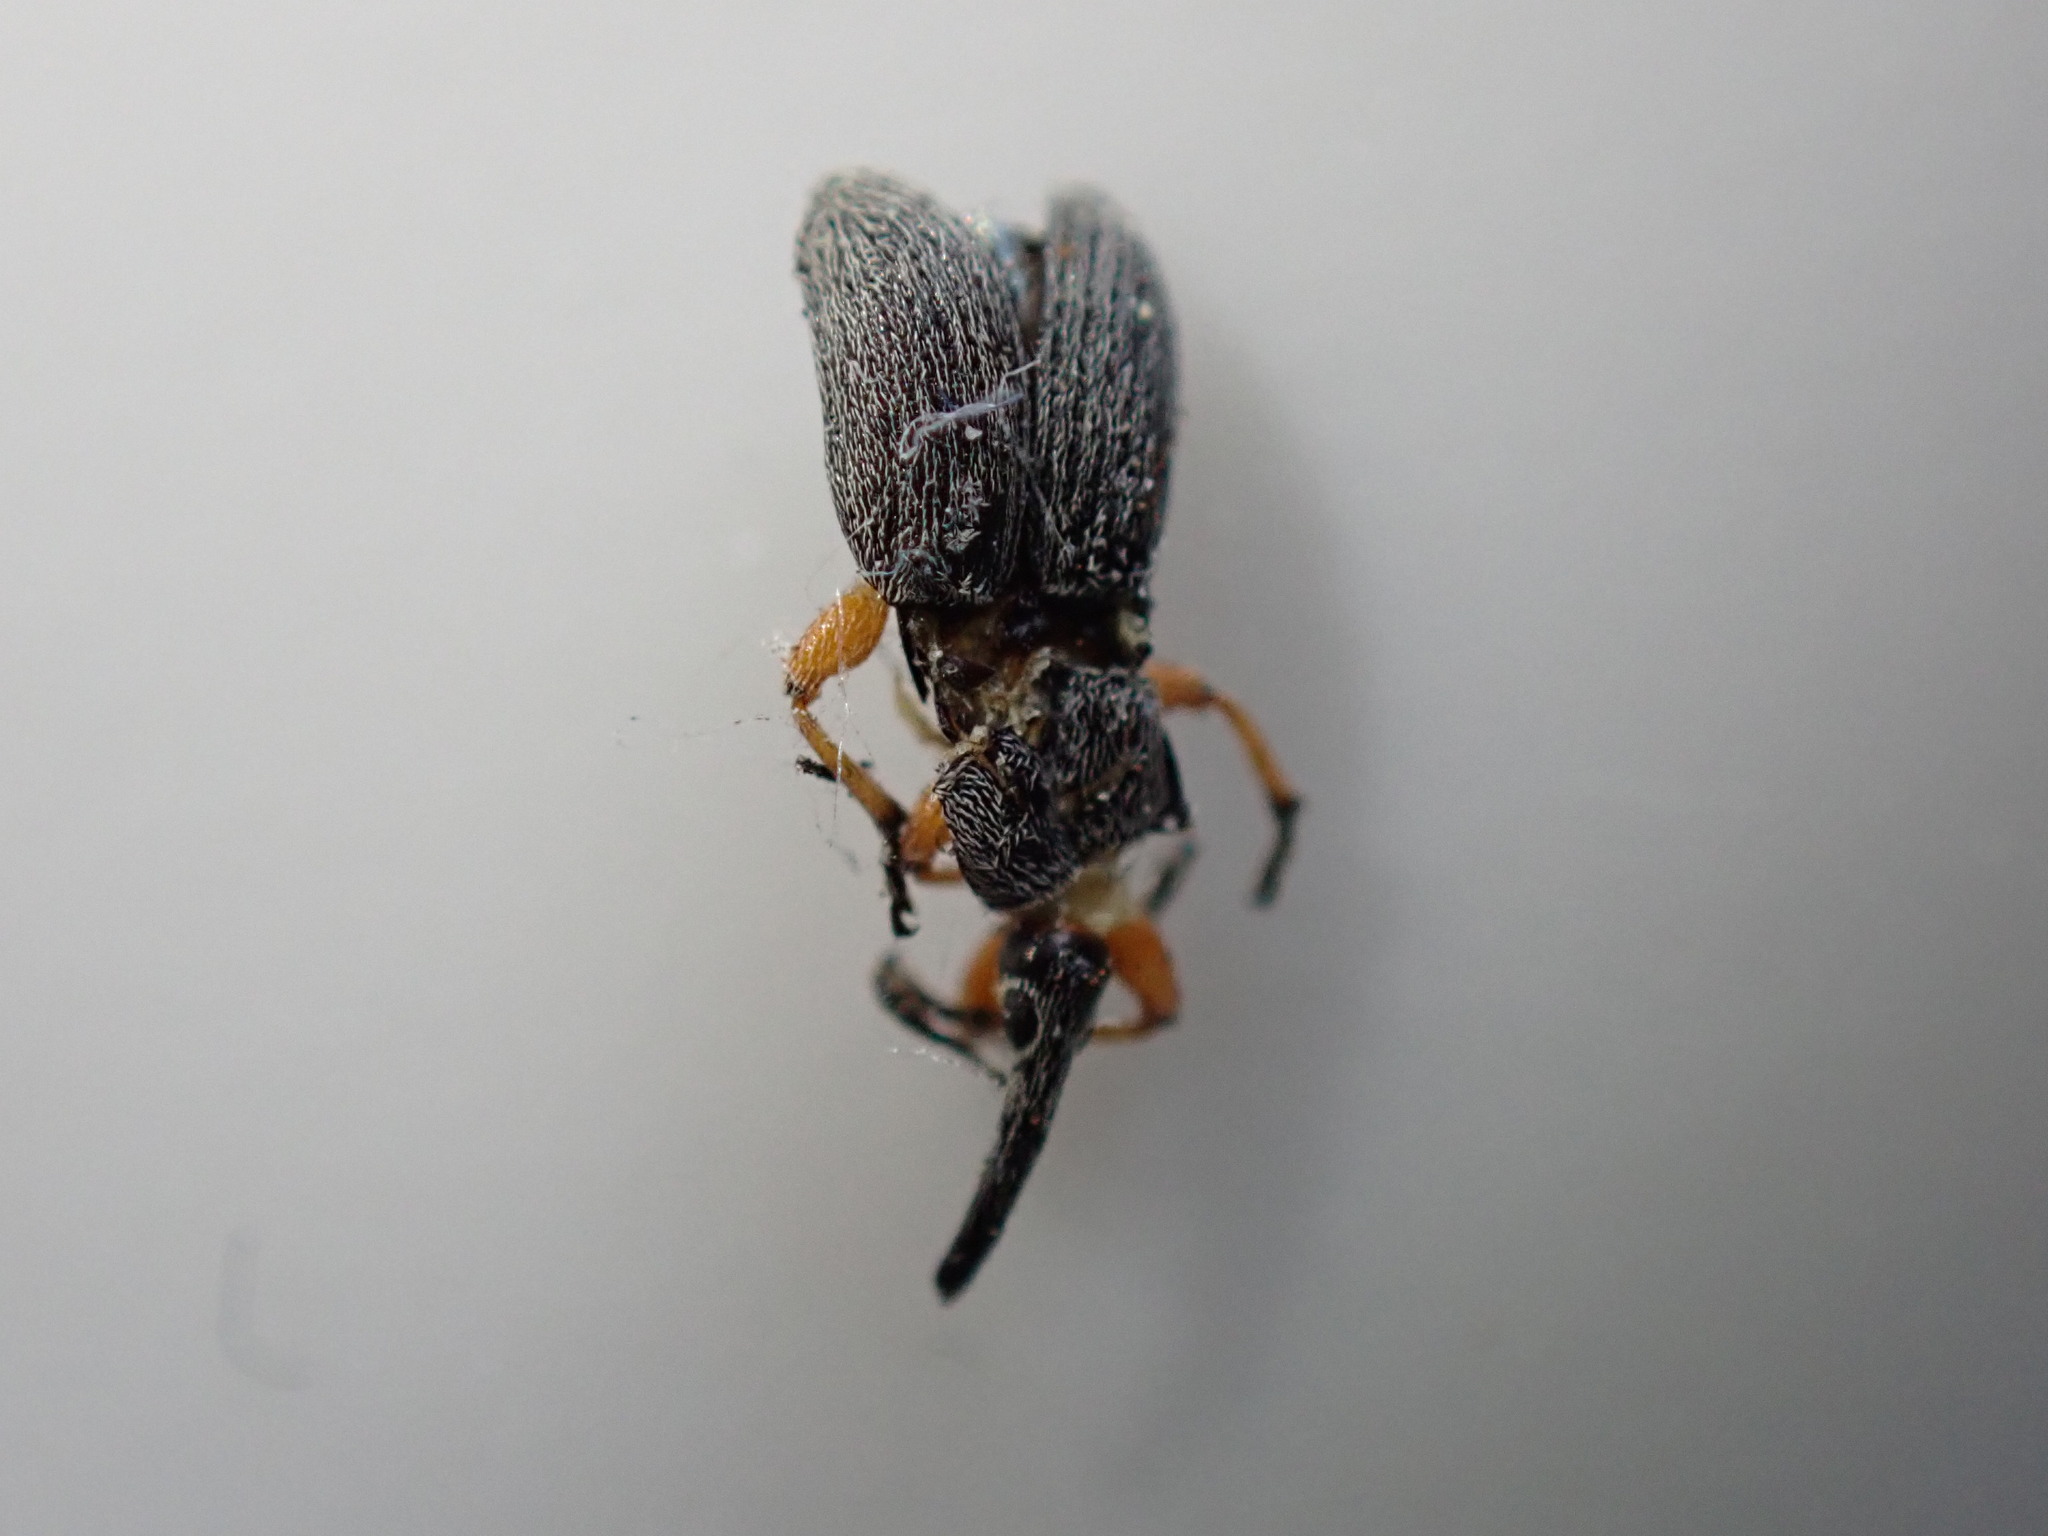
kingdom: Animalia
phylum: Arthropoda
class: Insecta
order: Coleoptera
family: Brentidae
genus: Rhopalapion
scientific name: Rhopalapion longirostre
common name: Hollyhock weevil
